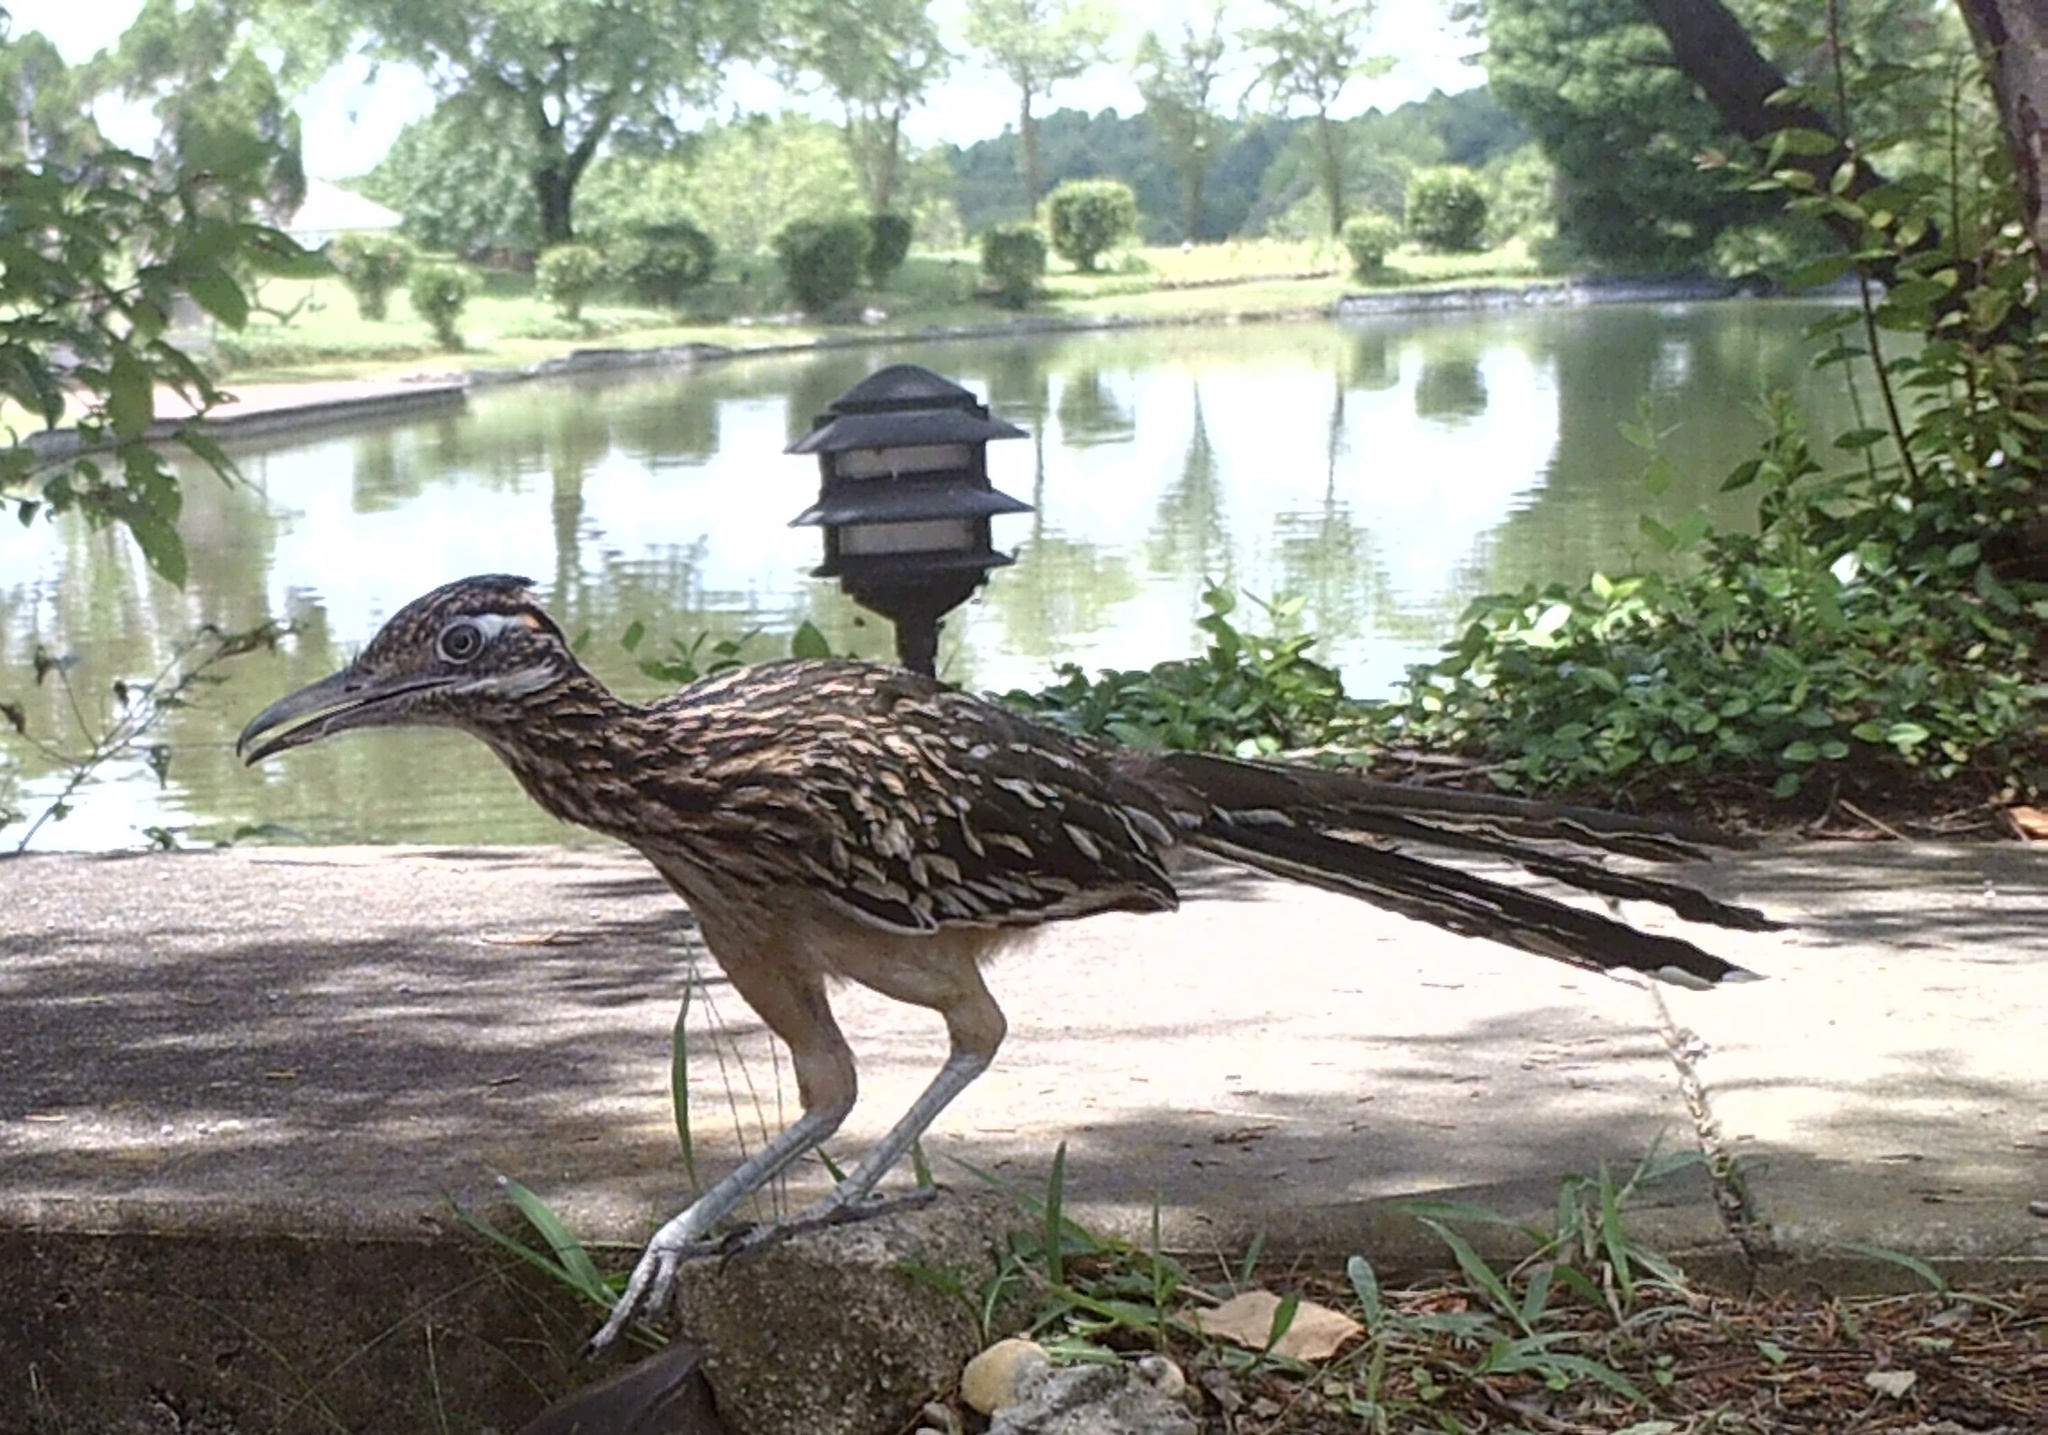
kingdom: Animalia
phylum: Chordata
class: Aves
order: Cuculiformes
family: Cuculidae
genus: Geococcyx
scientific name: Geococcyx californianus
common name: Greater roadrunner
